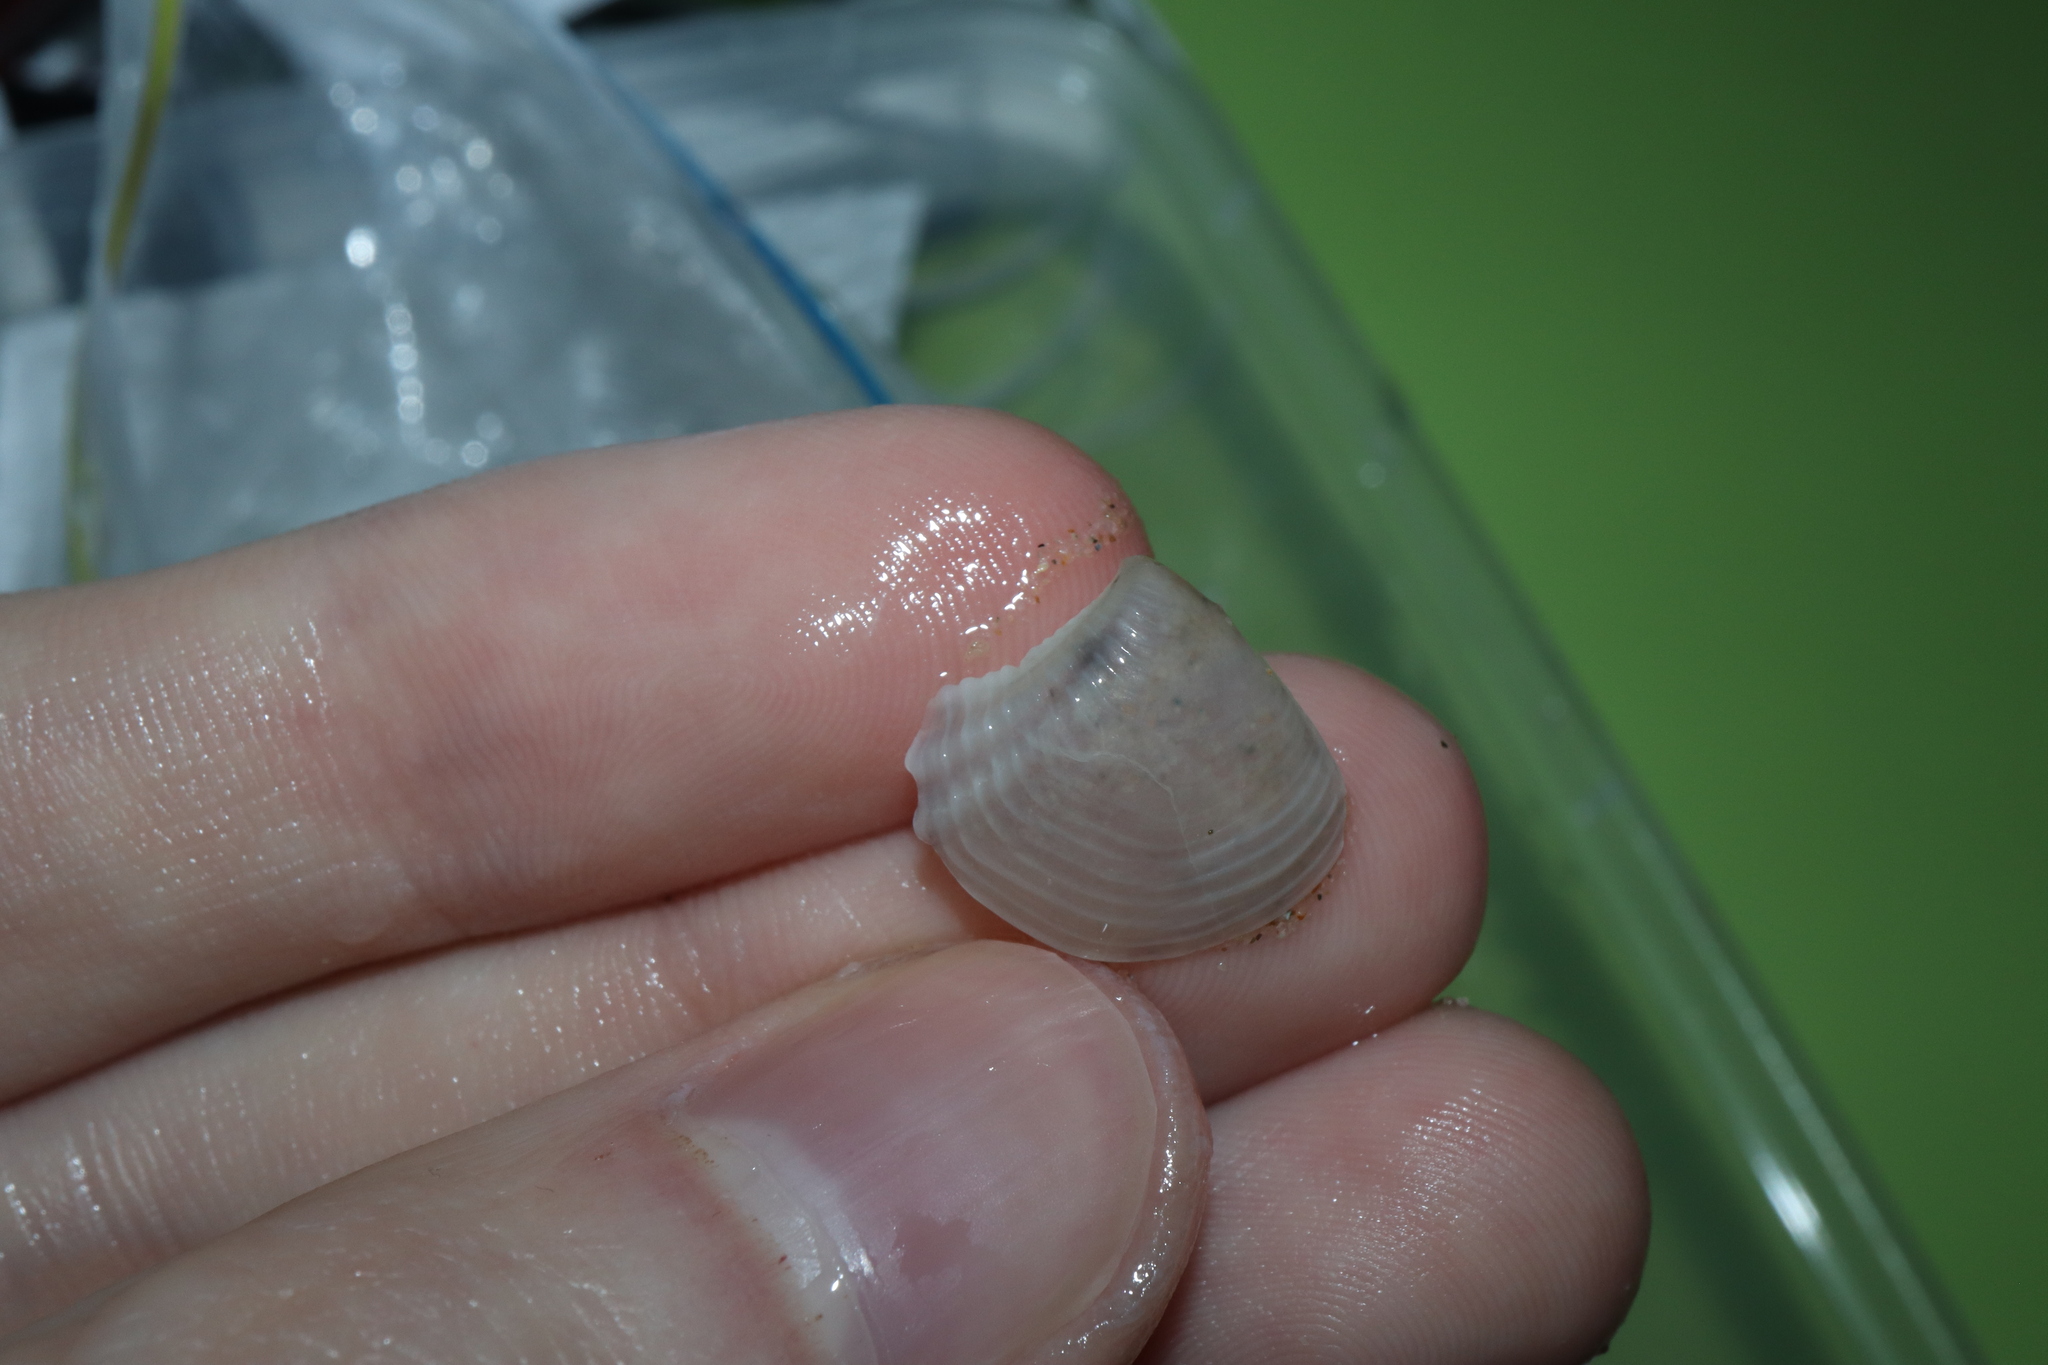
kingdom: Animalia
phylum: Mollusca
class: Bivalvia
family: Myochamidae
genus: Myadora
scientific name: Myadora brevis
